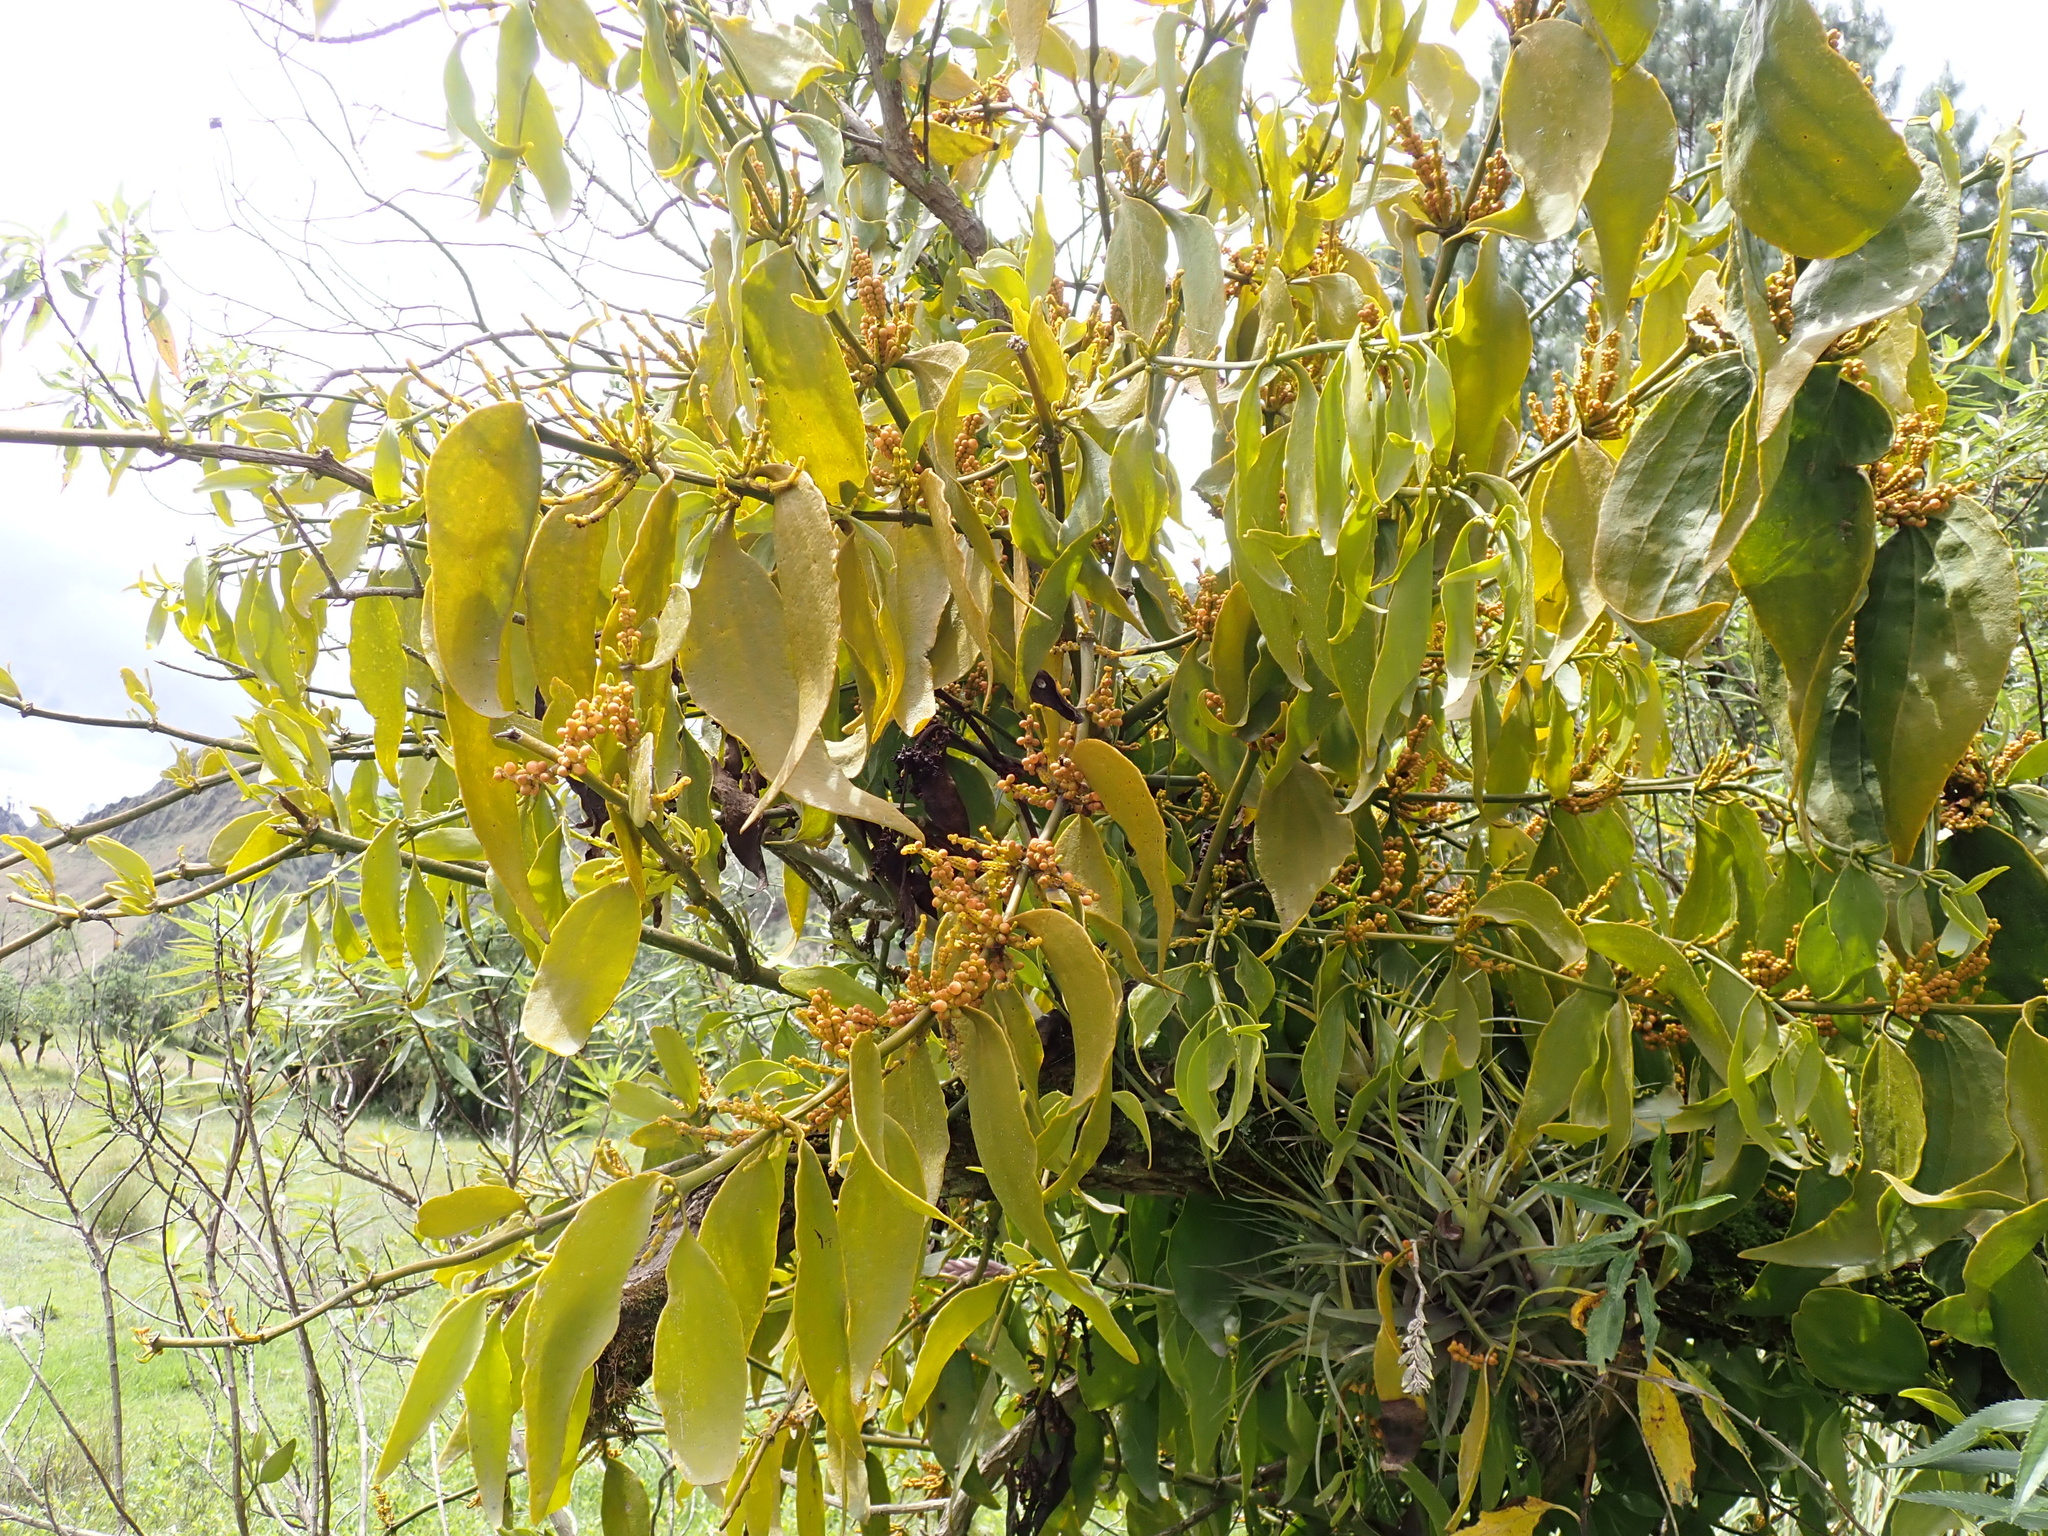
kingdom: Plantae
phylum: Tracheophyta
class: Magnoliopsida
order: Santalales
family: Viscaceae
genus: Phoradendron
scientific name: Phoradendron nervosum
